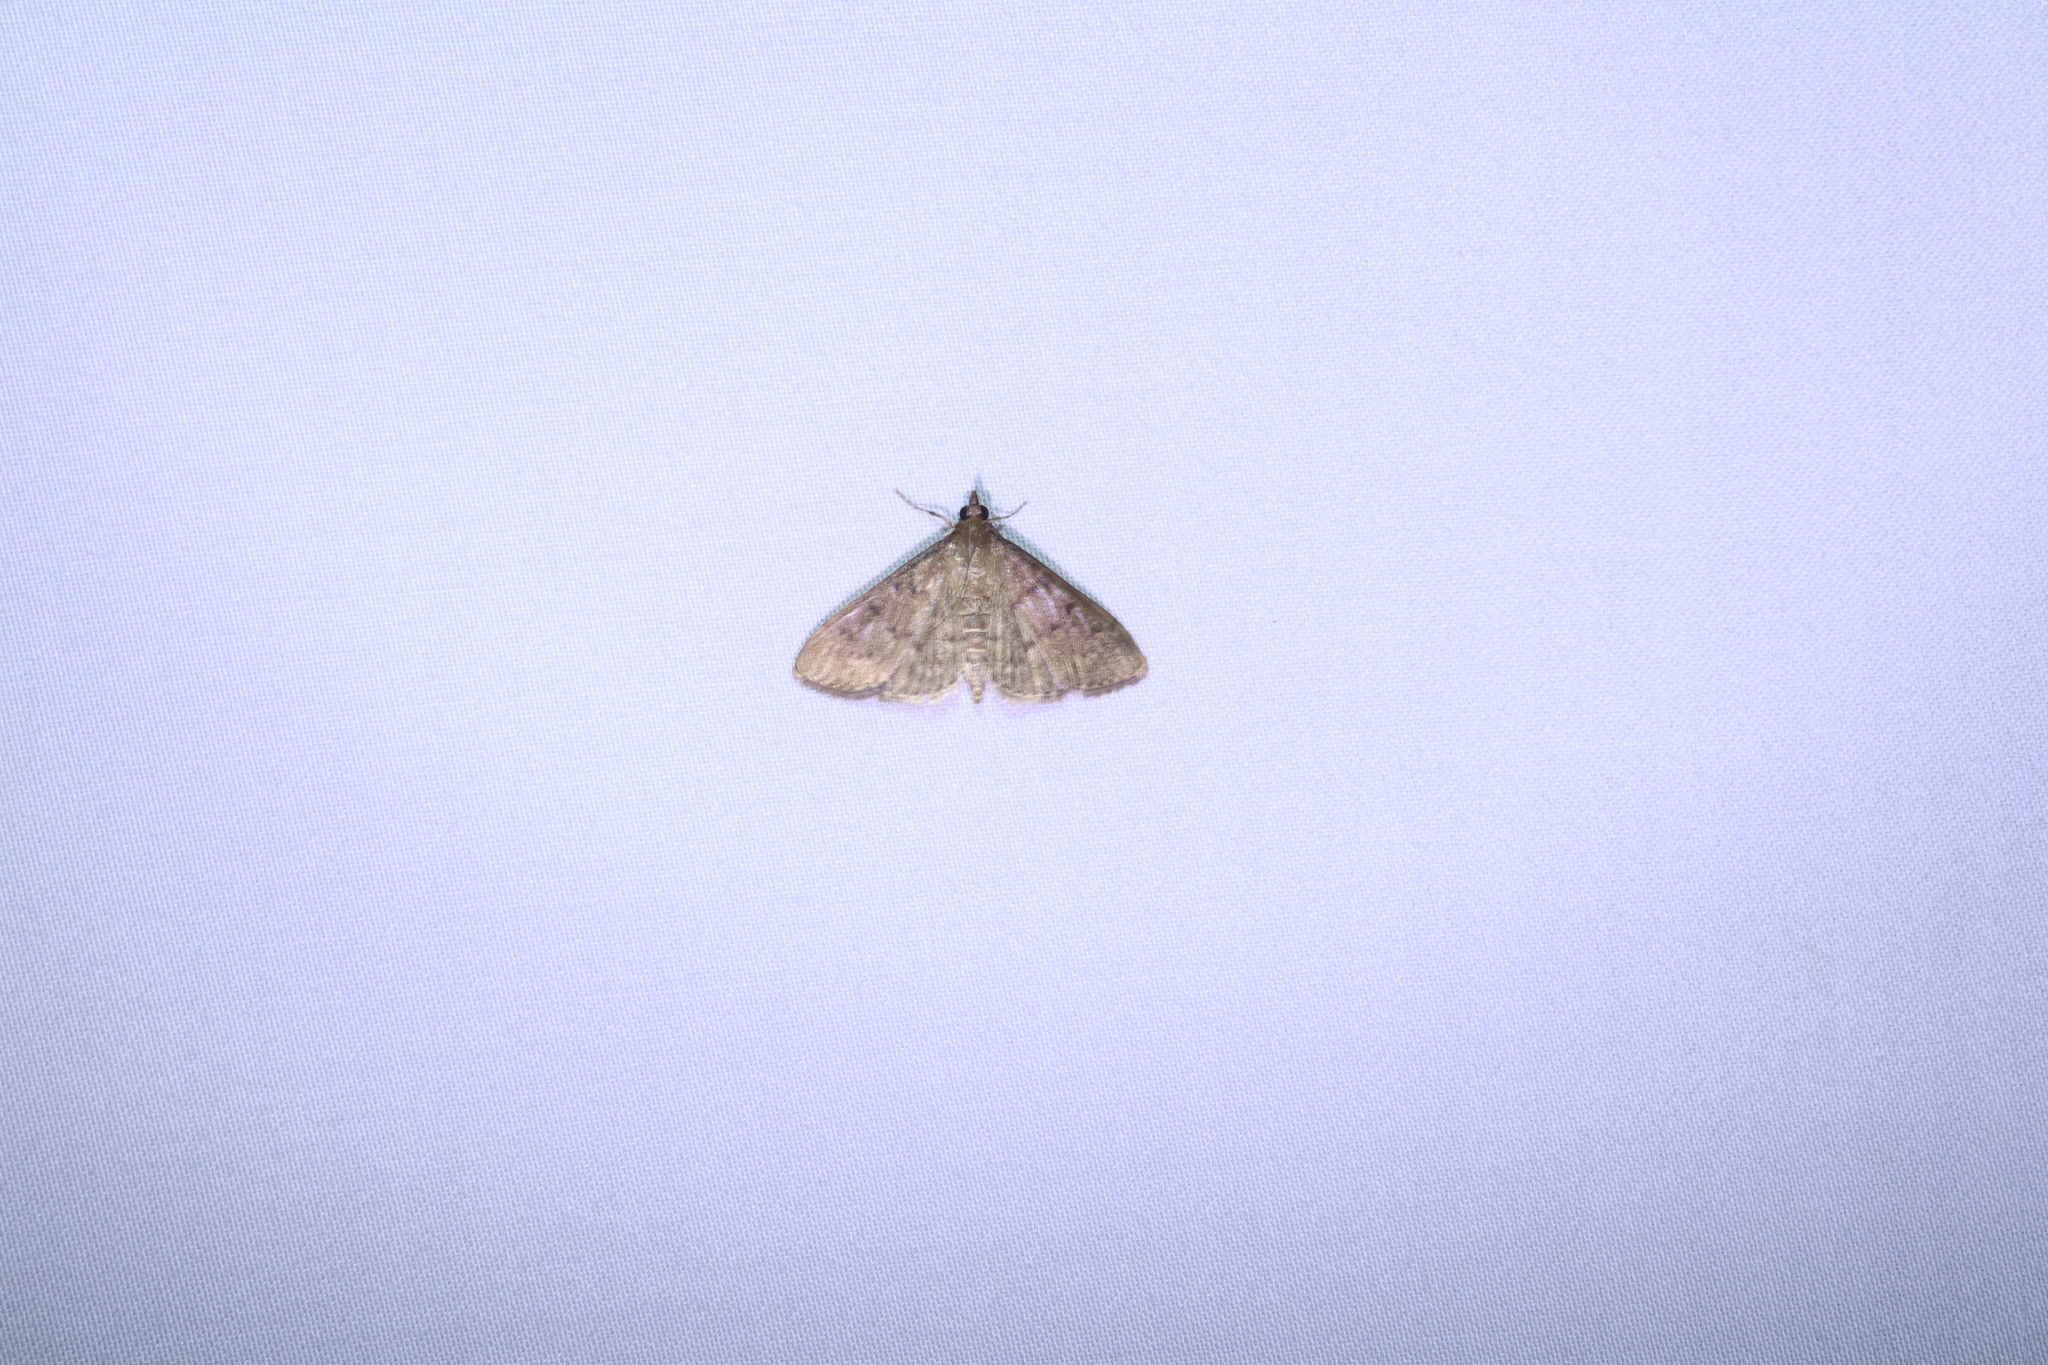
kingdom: Animalia
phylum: Arthropoda
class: Insecta
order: Lepidoptera
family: Crambidae
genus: Herpetogramma
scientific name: Herpetogramma licarsisalis
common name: Grass webworm
